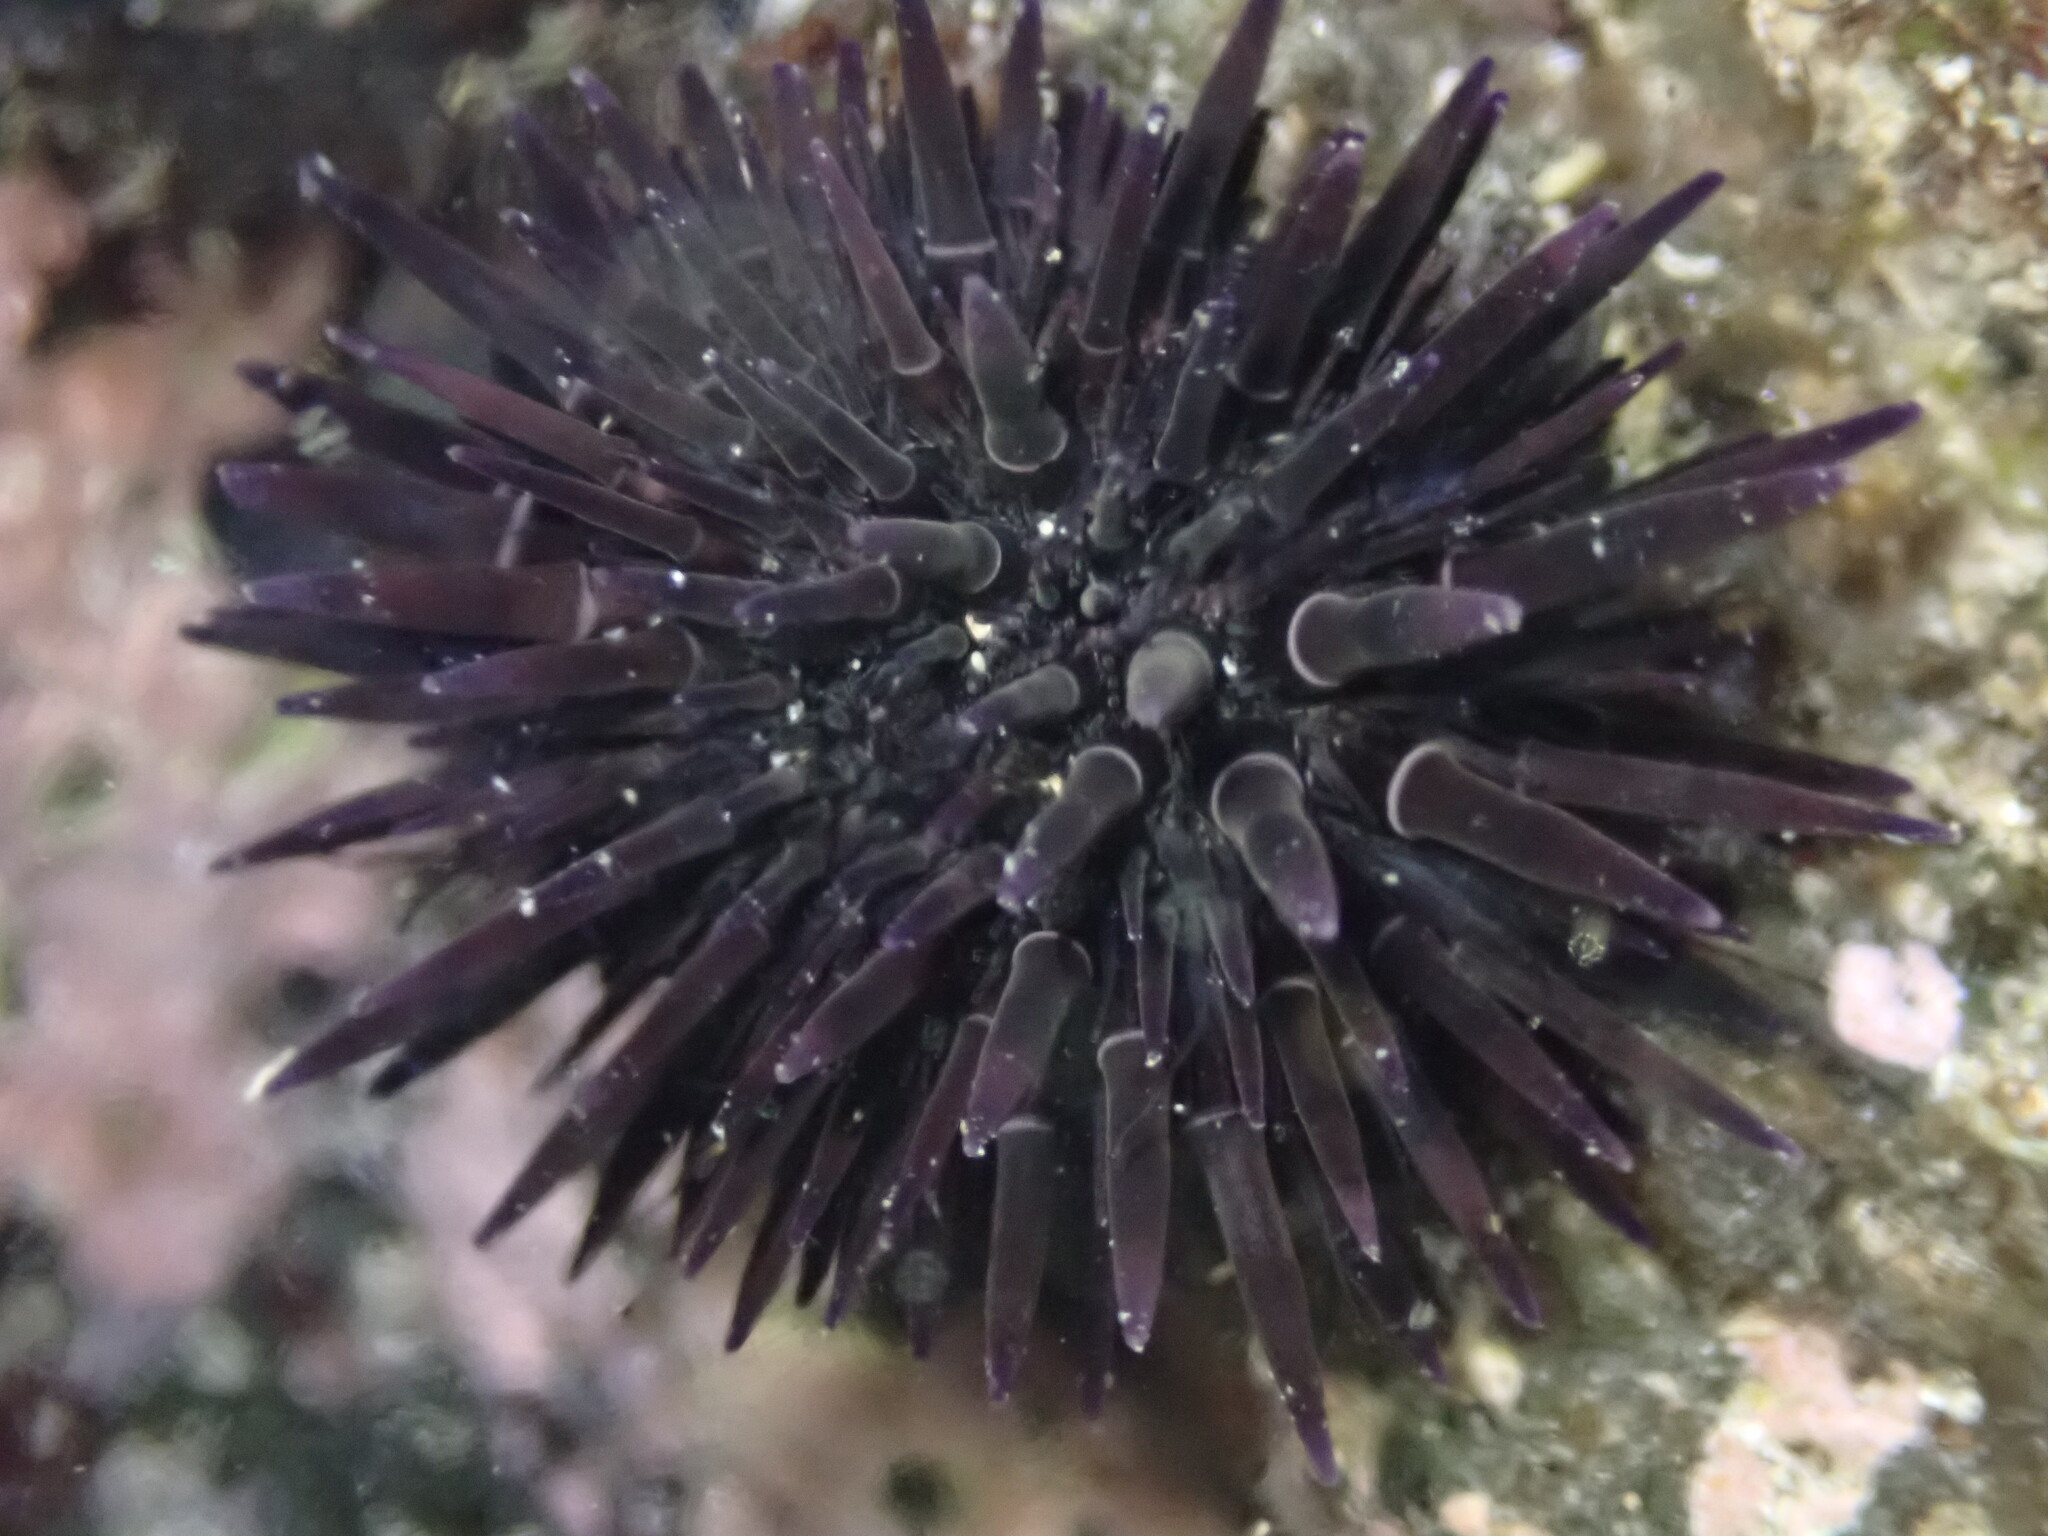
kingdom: Animalia
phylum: Echinodermata
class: Echinoidea
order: Camarodonta
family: Echinometridae
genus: Echinometra
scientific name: Echinometra oblonga
